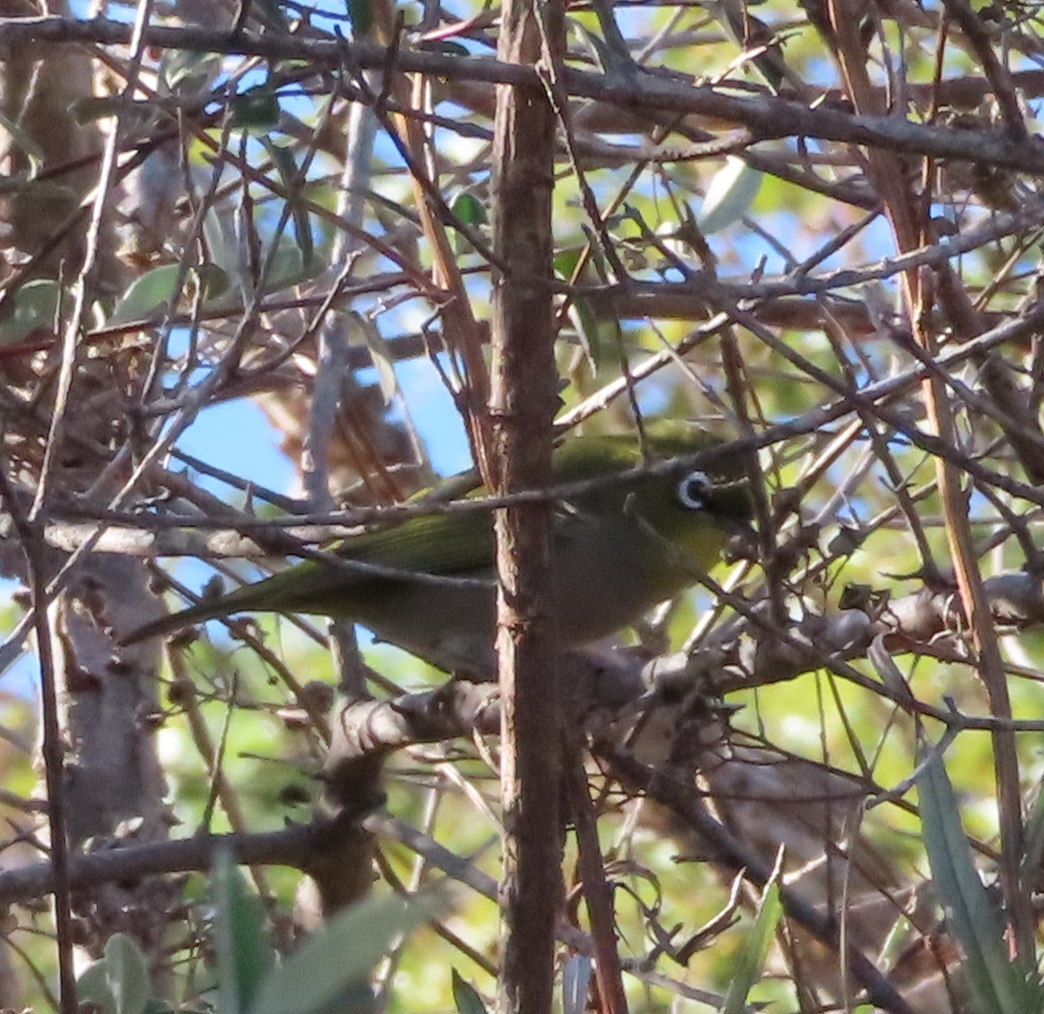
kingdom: Animalia
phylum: Chordata
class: Aves
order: Passeriformes
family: Zosteropidae
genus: Zosterops
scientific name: Zosterops virens
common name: Cape white-eye
